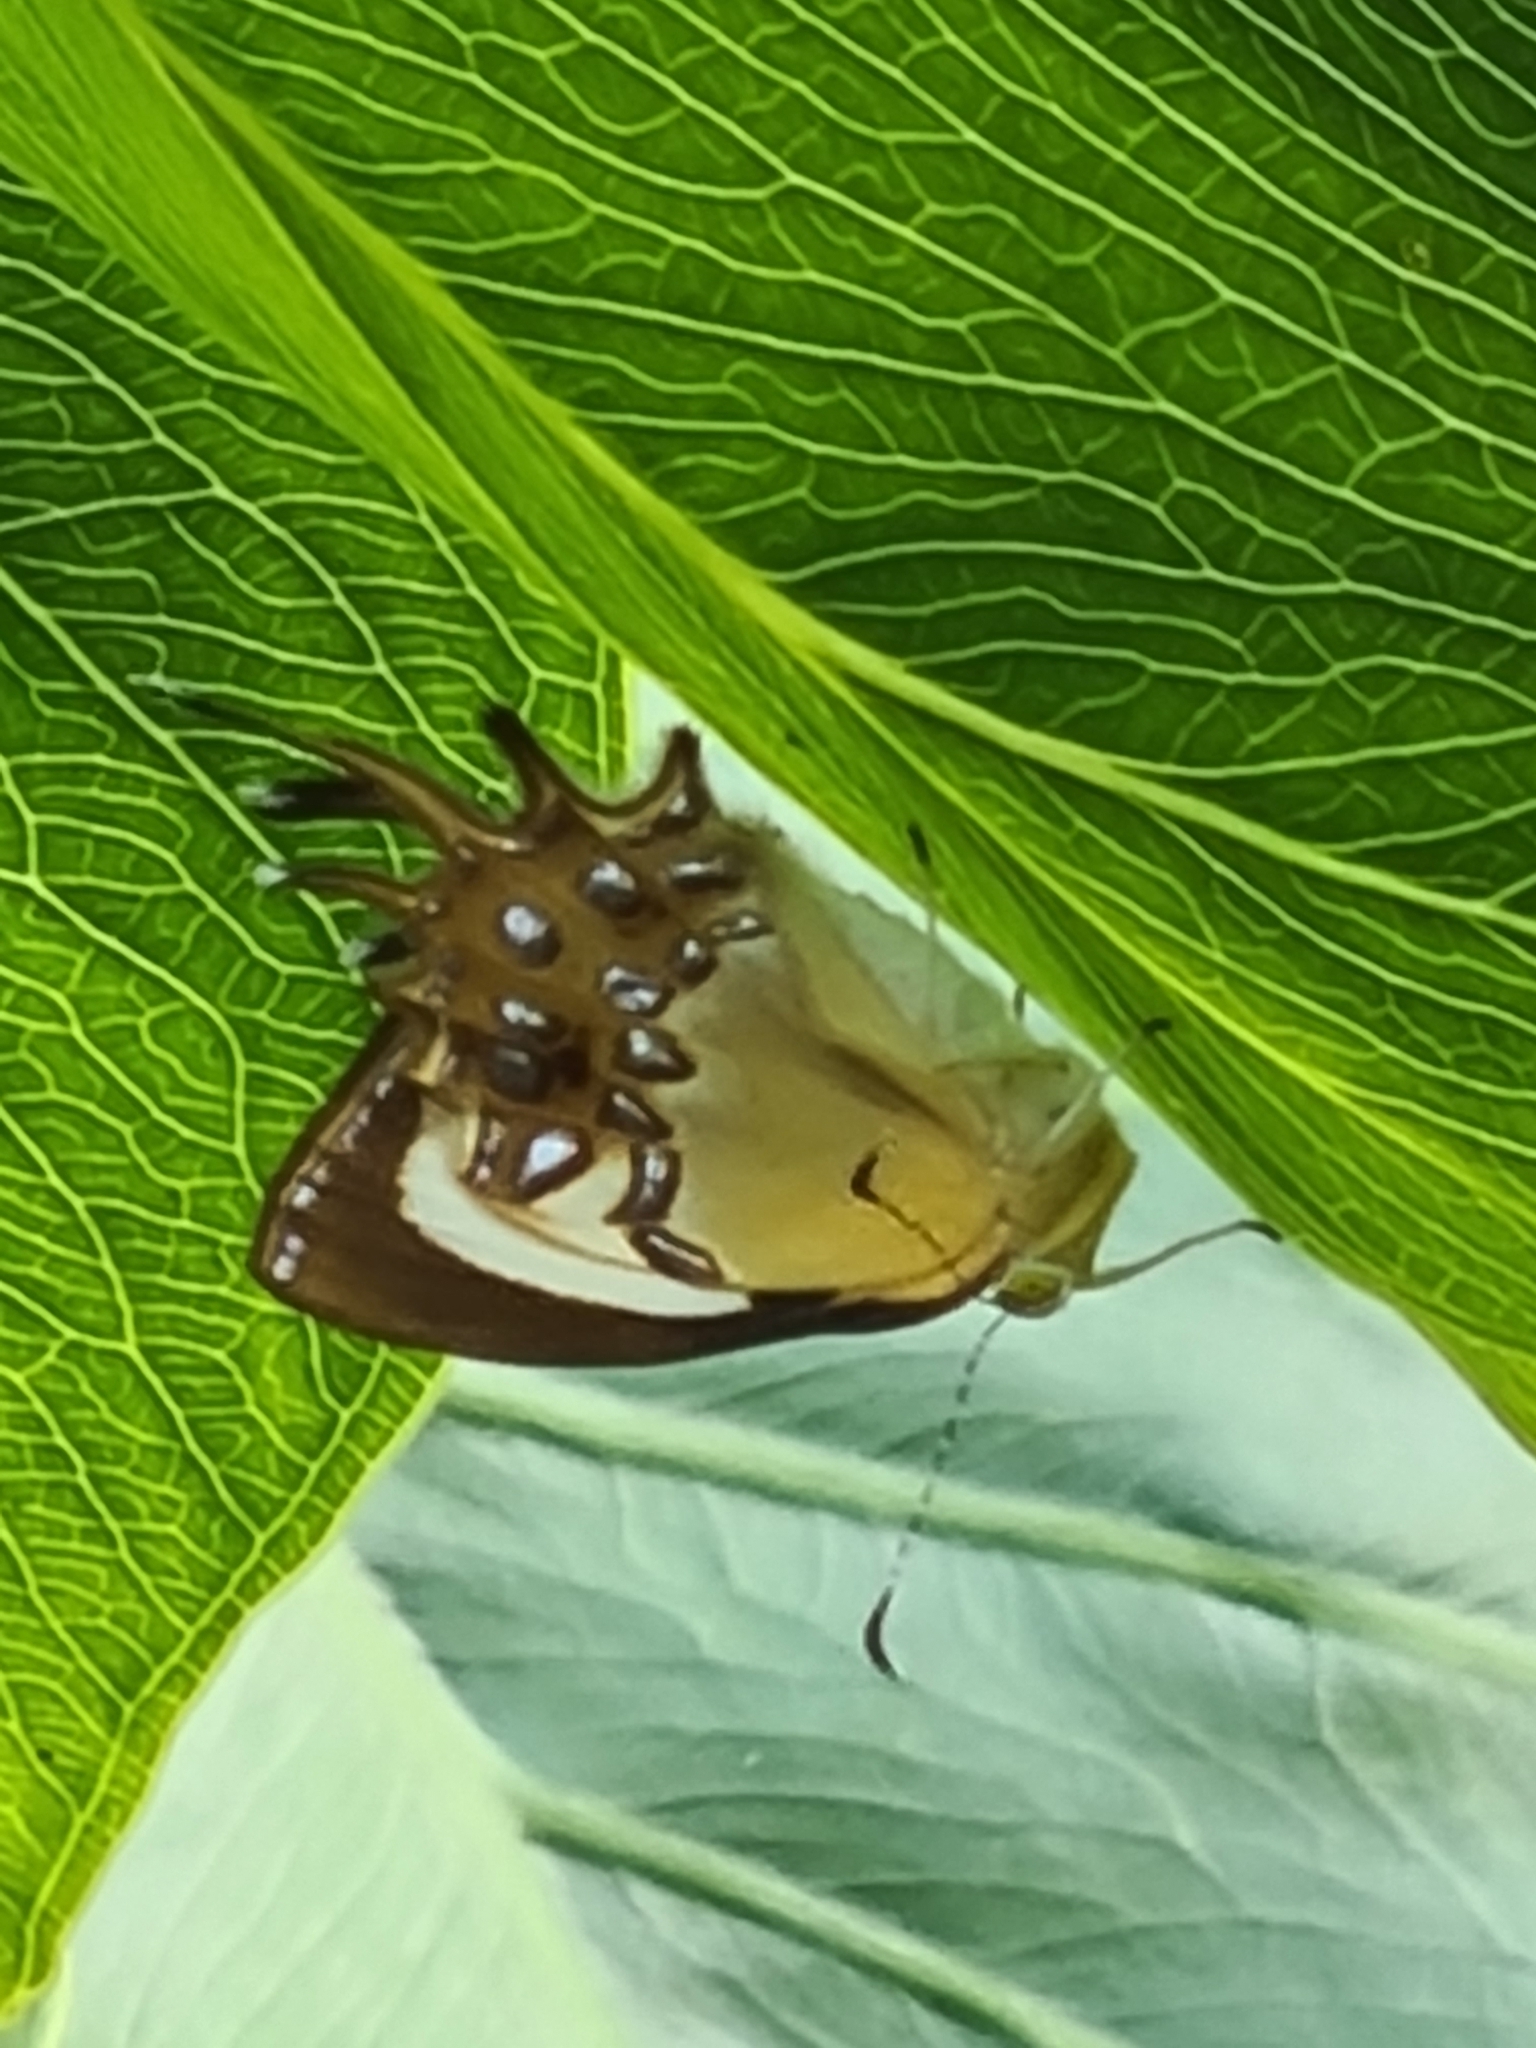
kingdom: Animalia
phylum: Arthropoda
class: Insecta
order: Lepidoptera
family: Riodinidae
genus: Helicopis
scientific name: Helicopis cupido
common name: Spangled cupid
